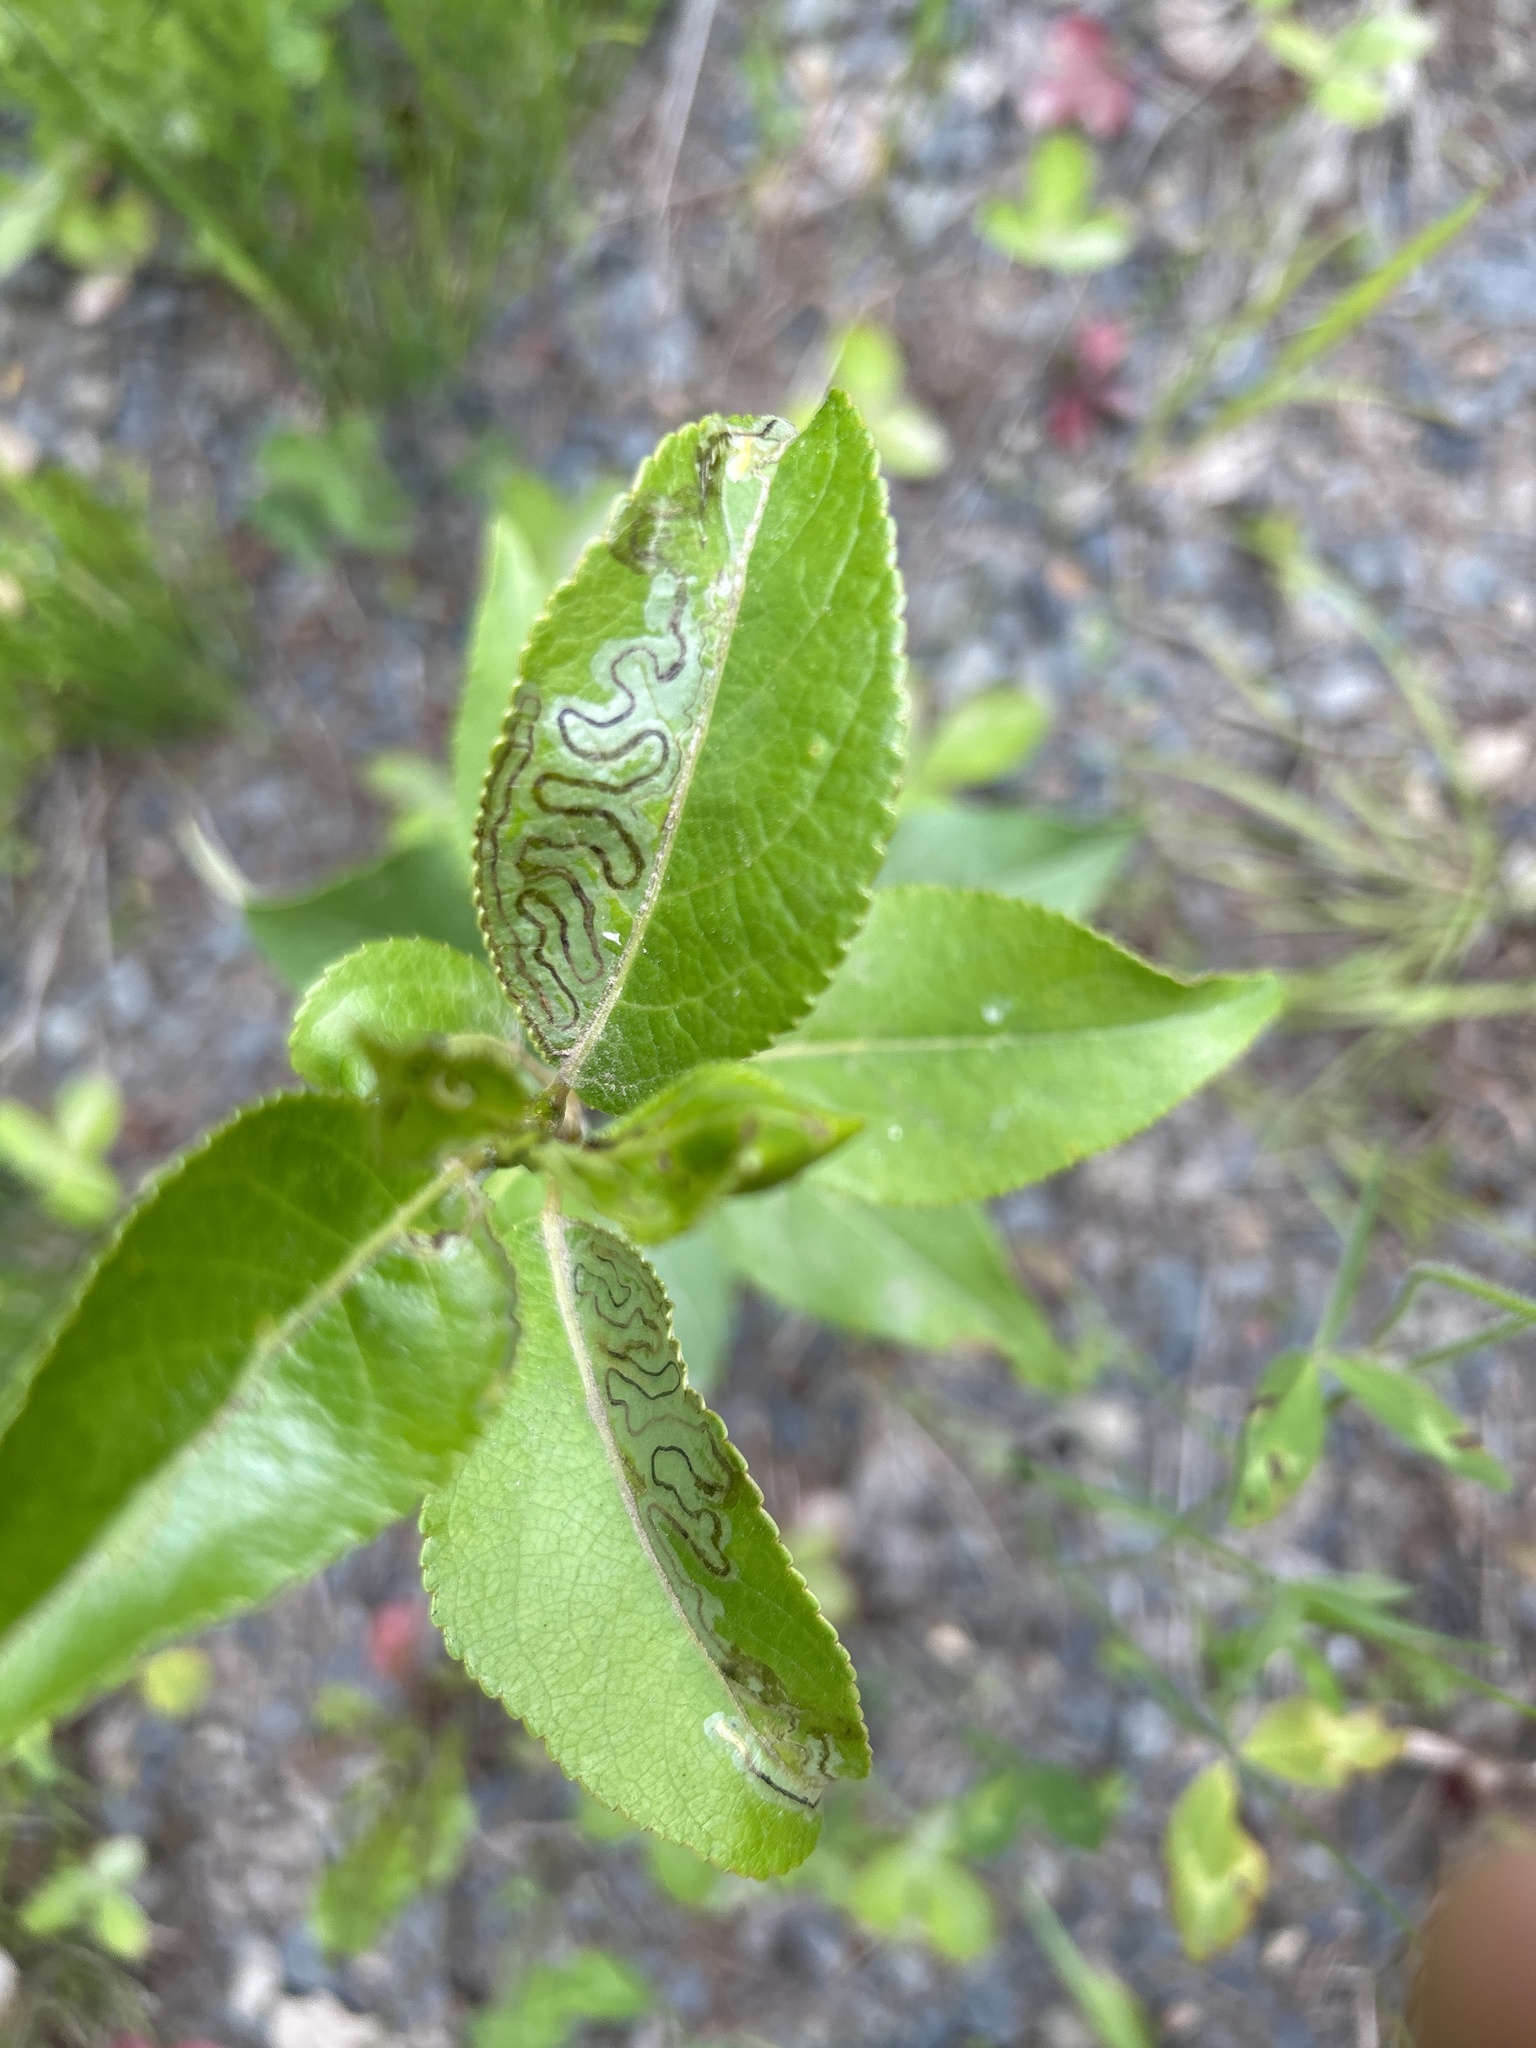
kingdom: Animalia
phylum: Arthropoda
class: Insecta
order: Lepidoptera
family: Gracillariidae
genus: Phyllocnistis
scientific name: Phyllocnistis populiella
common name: Aspen serpentine leafminer moth
